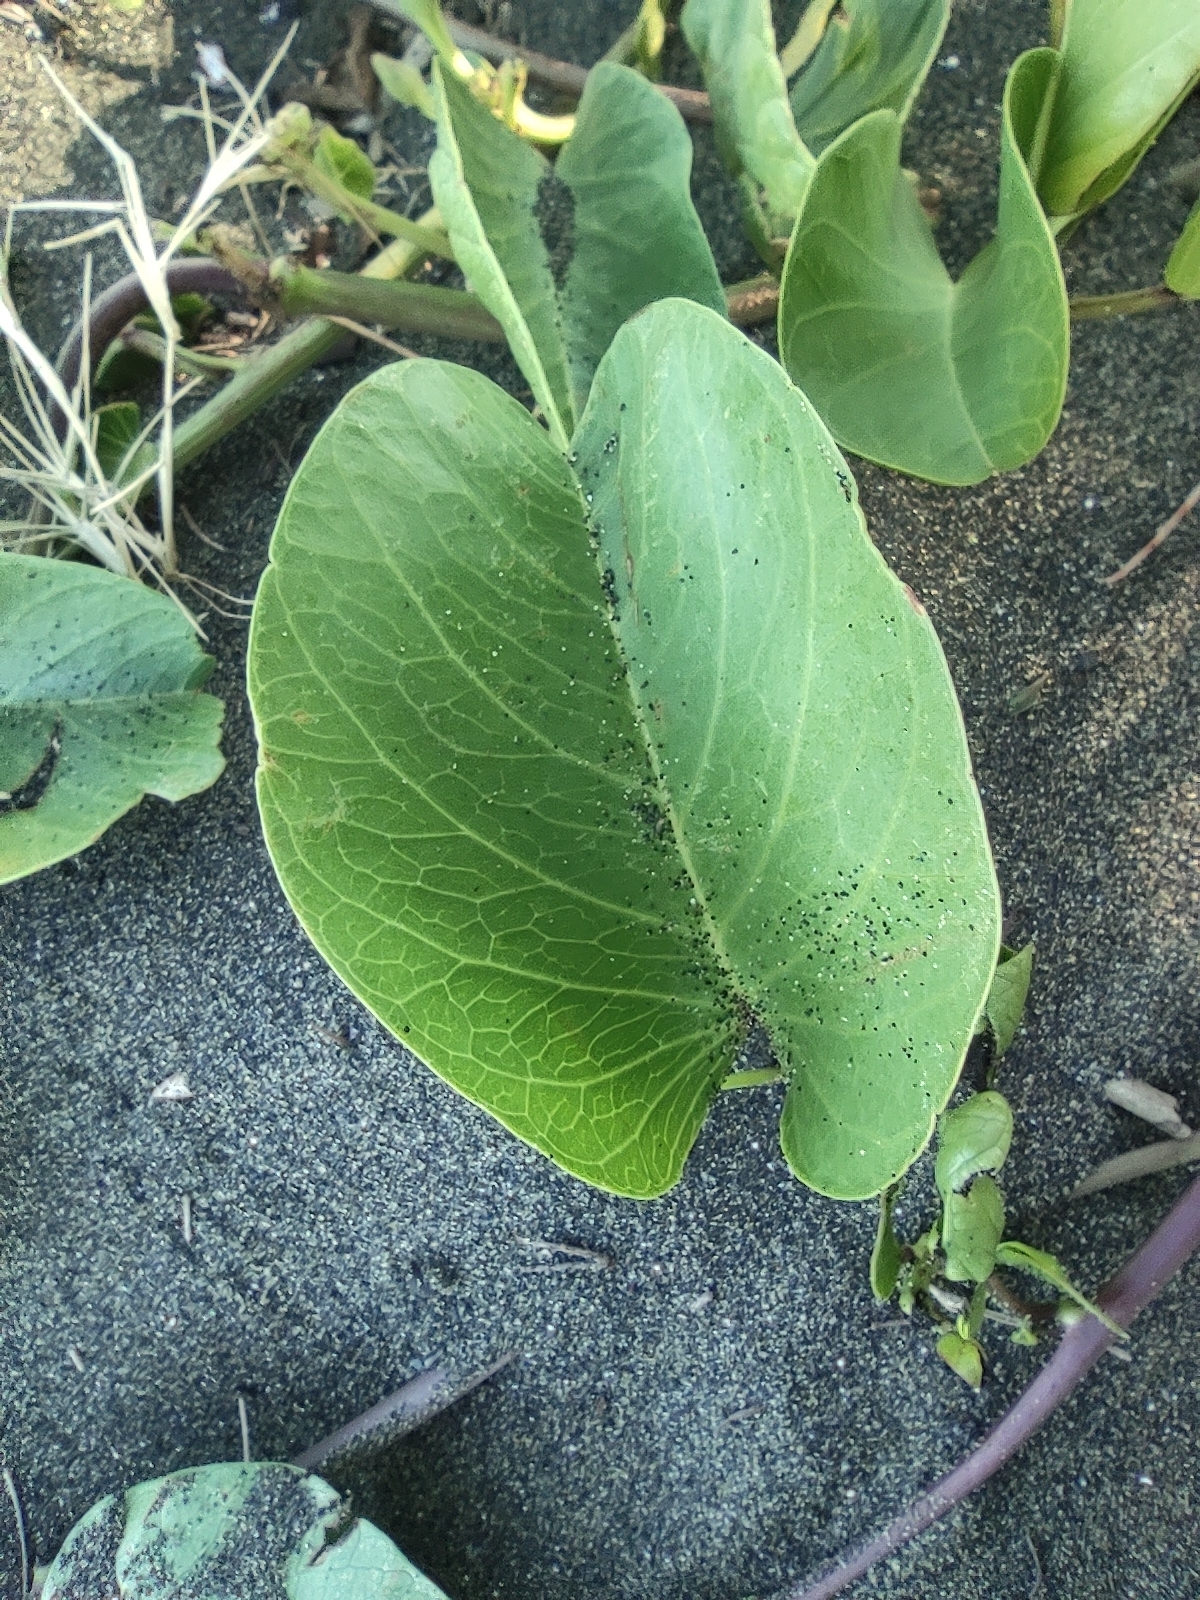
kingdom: Plantae
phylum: Tracheophyta
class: Magnoliopsida
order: Solanales
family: Convolvulaceae
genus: Ipomoea
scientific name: Ipomoea pes-caprae
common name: Beach morning glory
